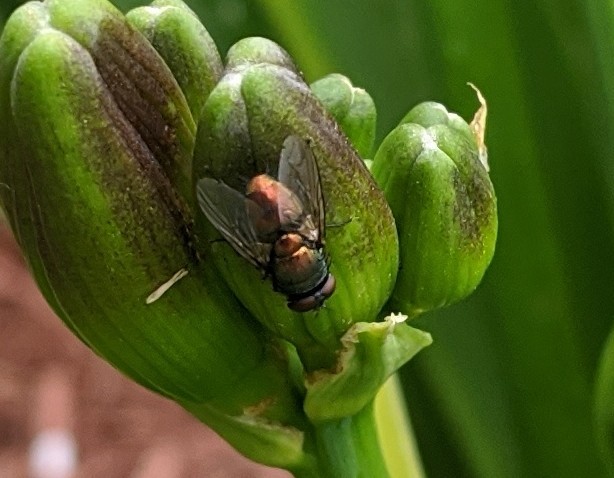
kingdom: Animalia
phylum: Arthropoda
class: Insecta
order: Diptera
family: Calliphoridae
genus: Lucilia
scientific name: Lucilia sericata
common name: Blow fly
